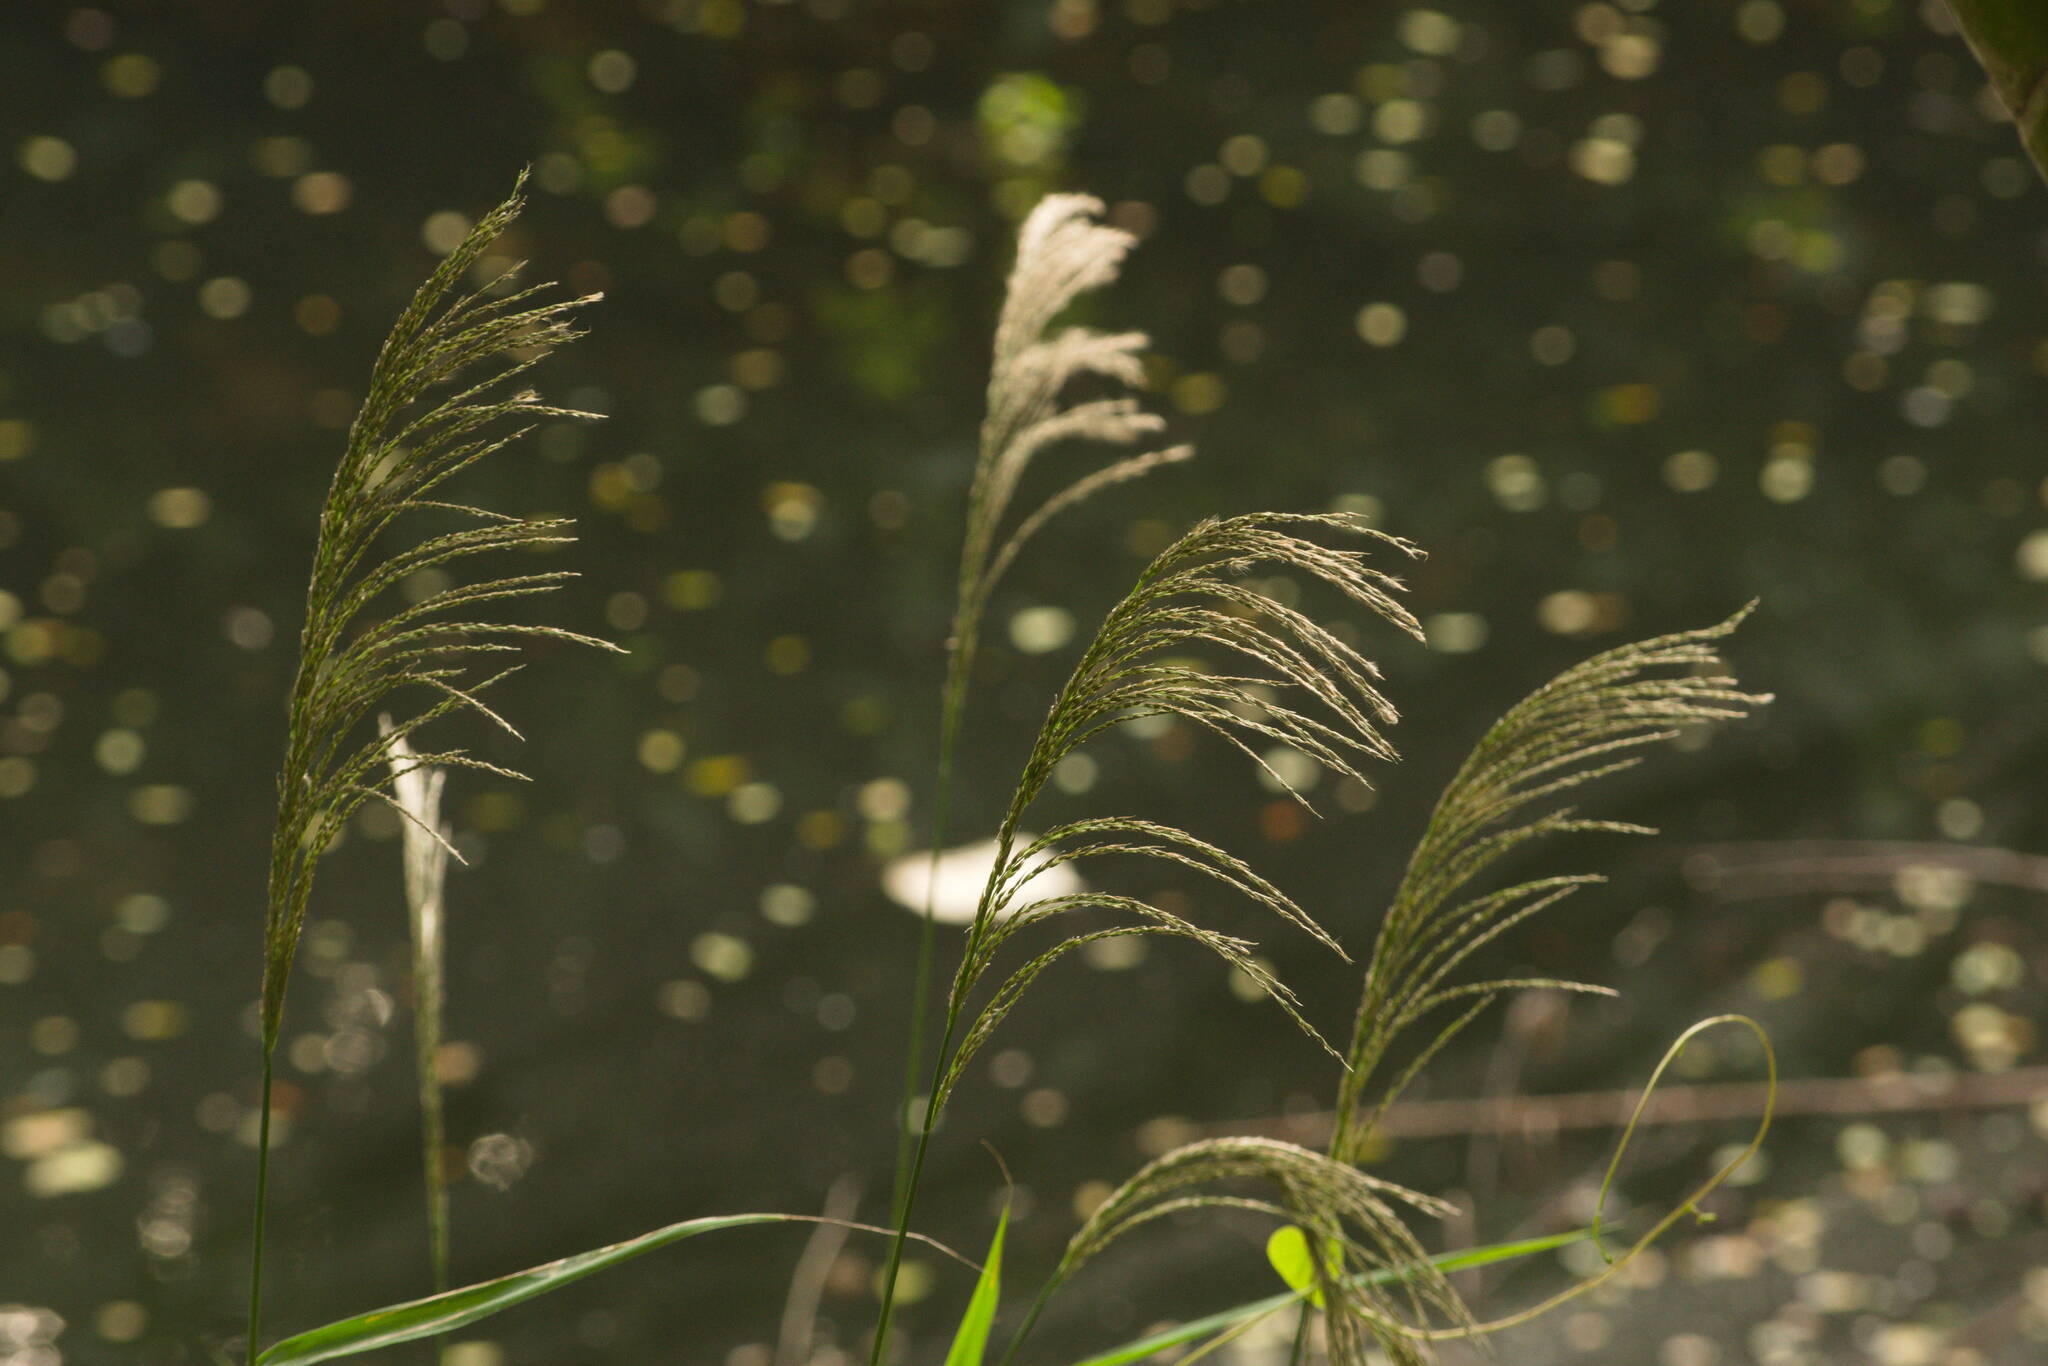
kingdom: Plantae
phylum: Tracheophyta
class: Liliopsida
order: Poales
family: Poaceae
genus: Digitaria
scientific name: Digitaria insularis
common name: Sourgrass
